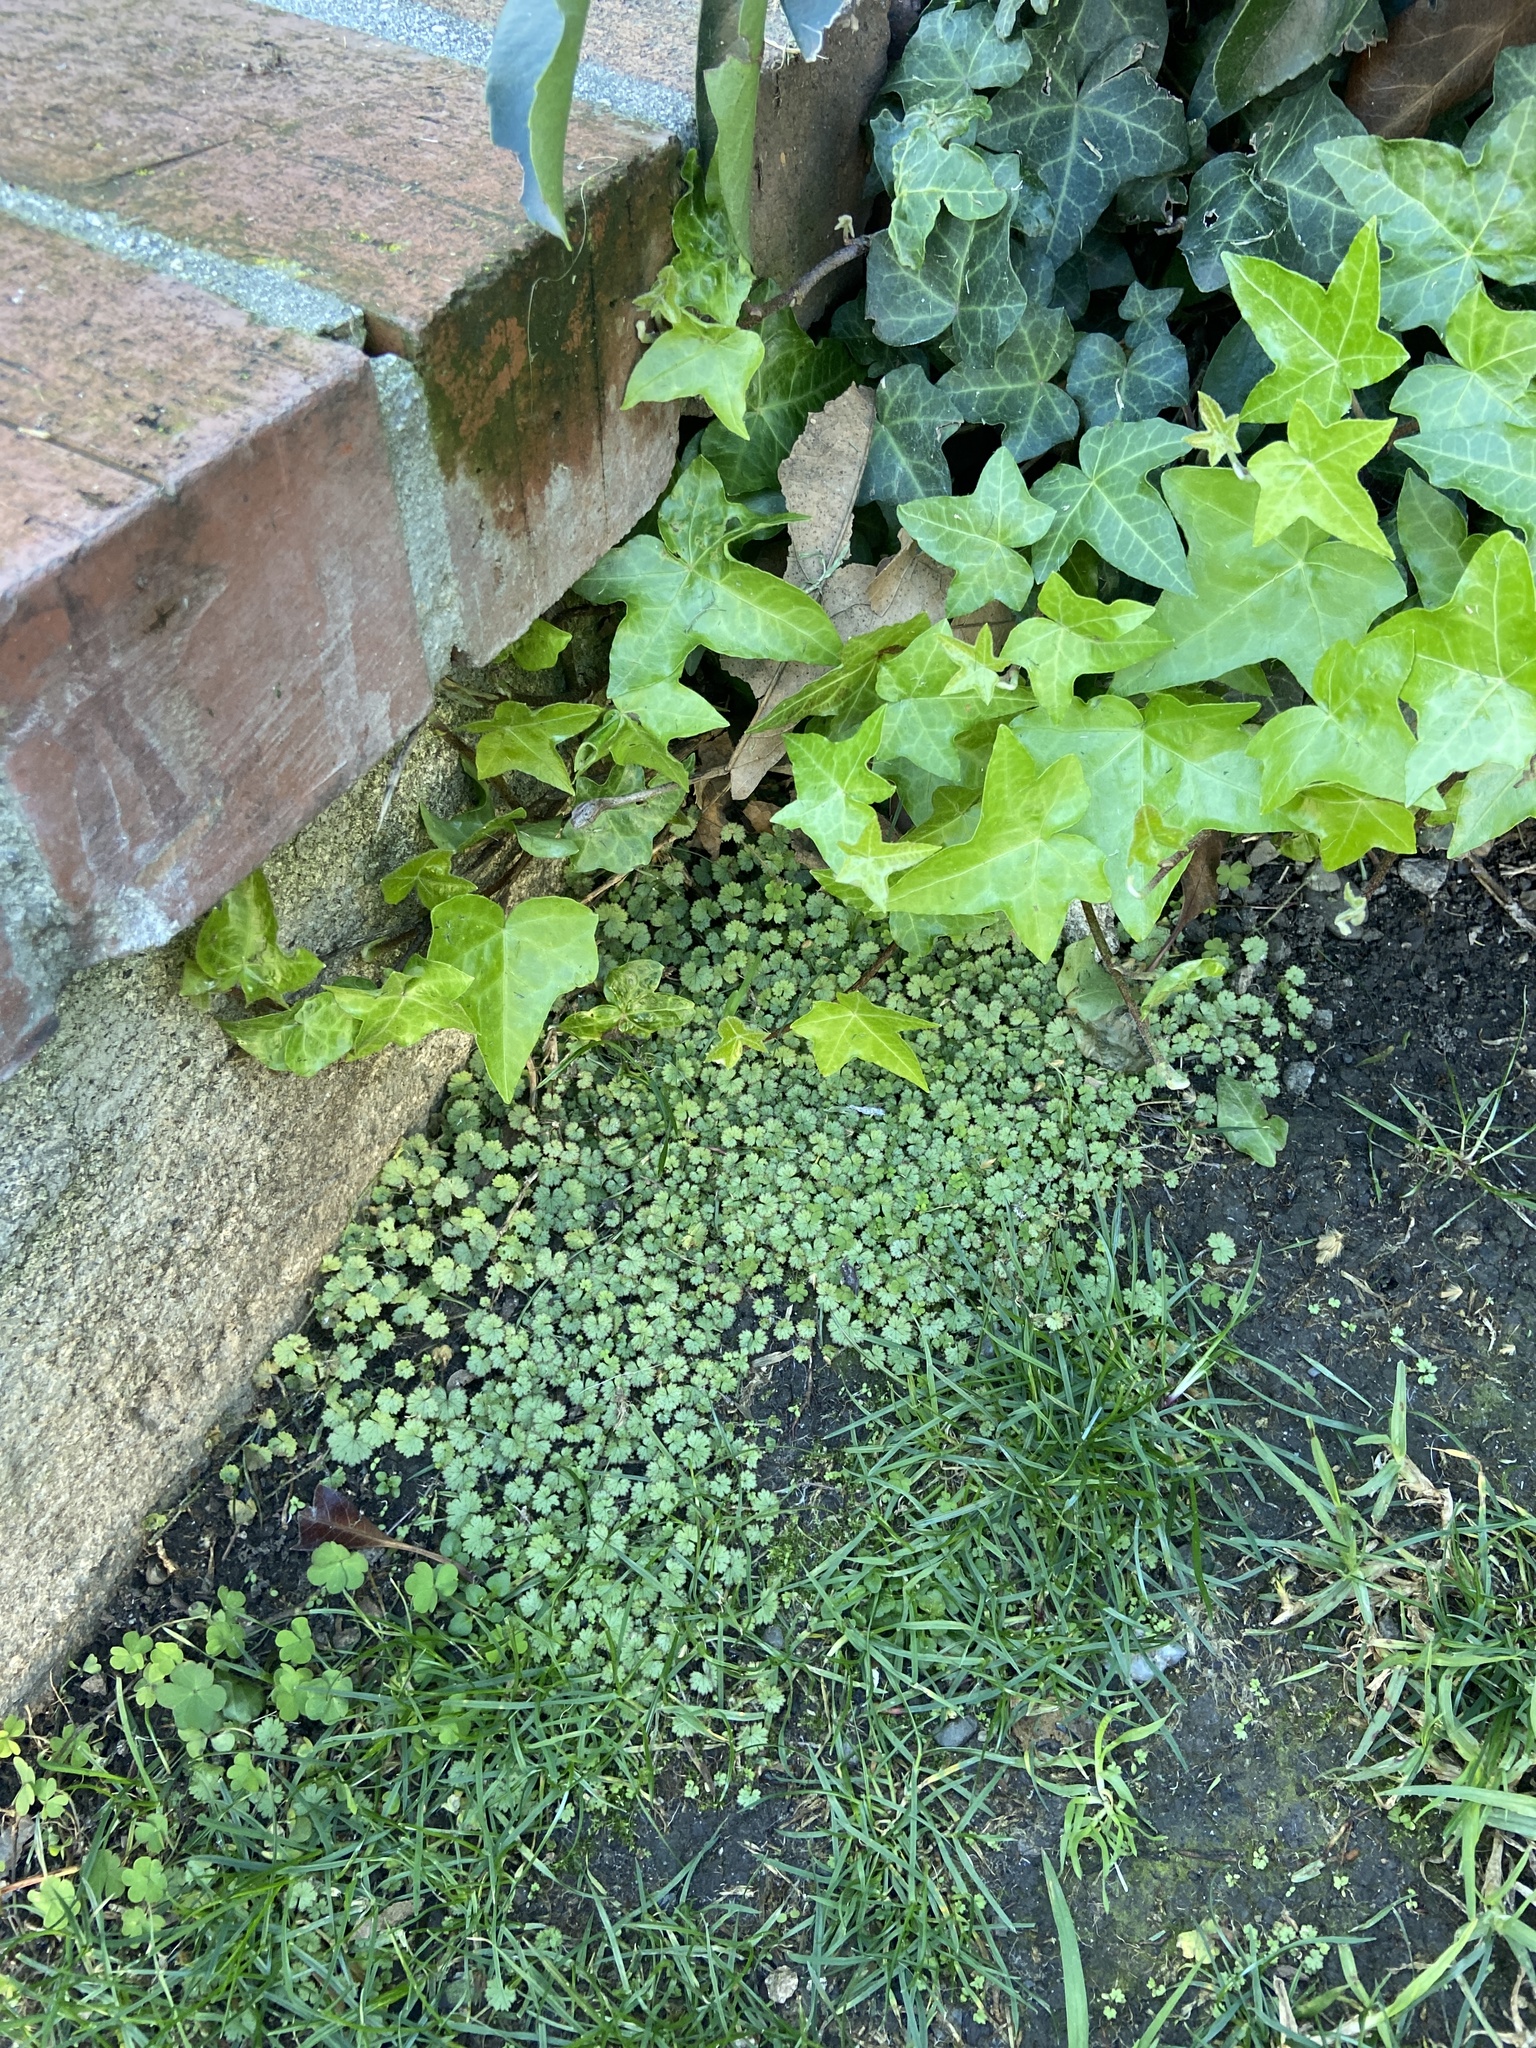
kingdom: Plantae
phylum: Tracheophyta
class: Magnoliopsida
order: Apiales
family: Araliaceae
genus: Hydrocotyle
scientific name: Hydrocotyle moschata
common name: Hairy pennywort
